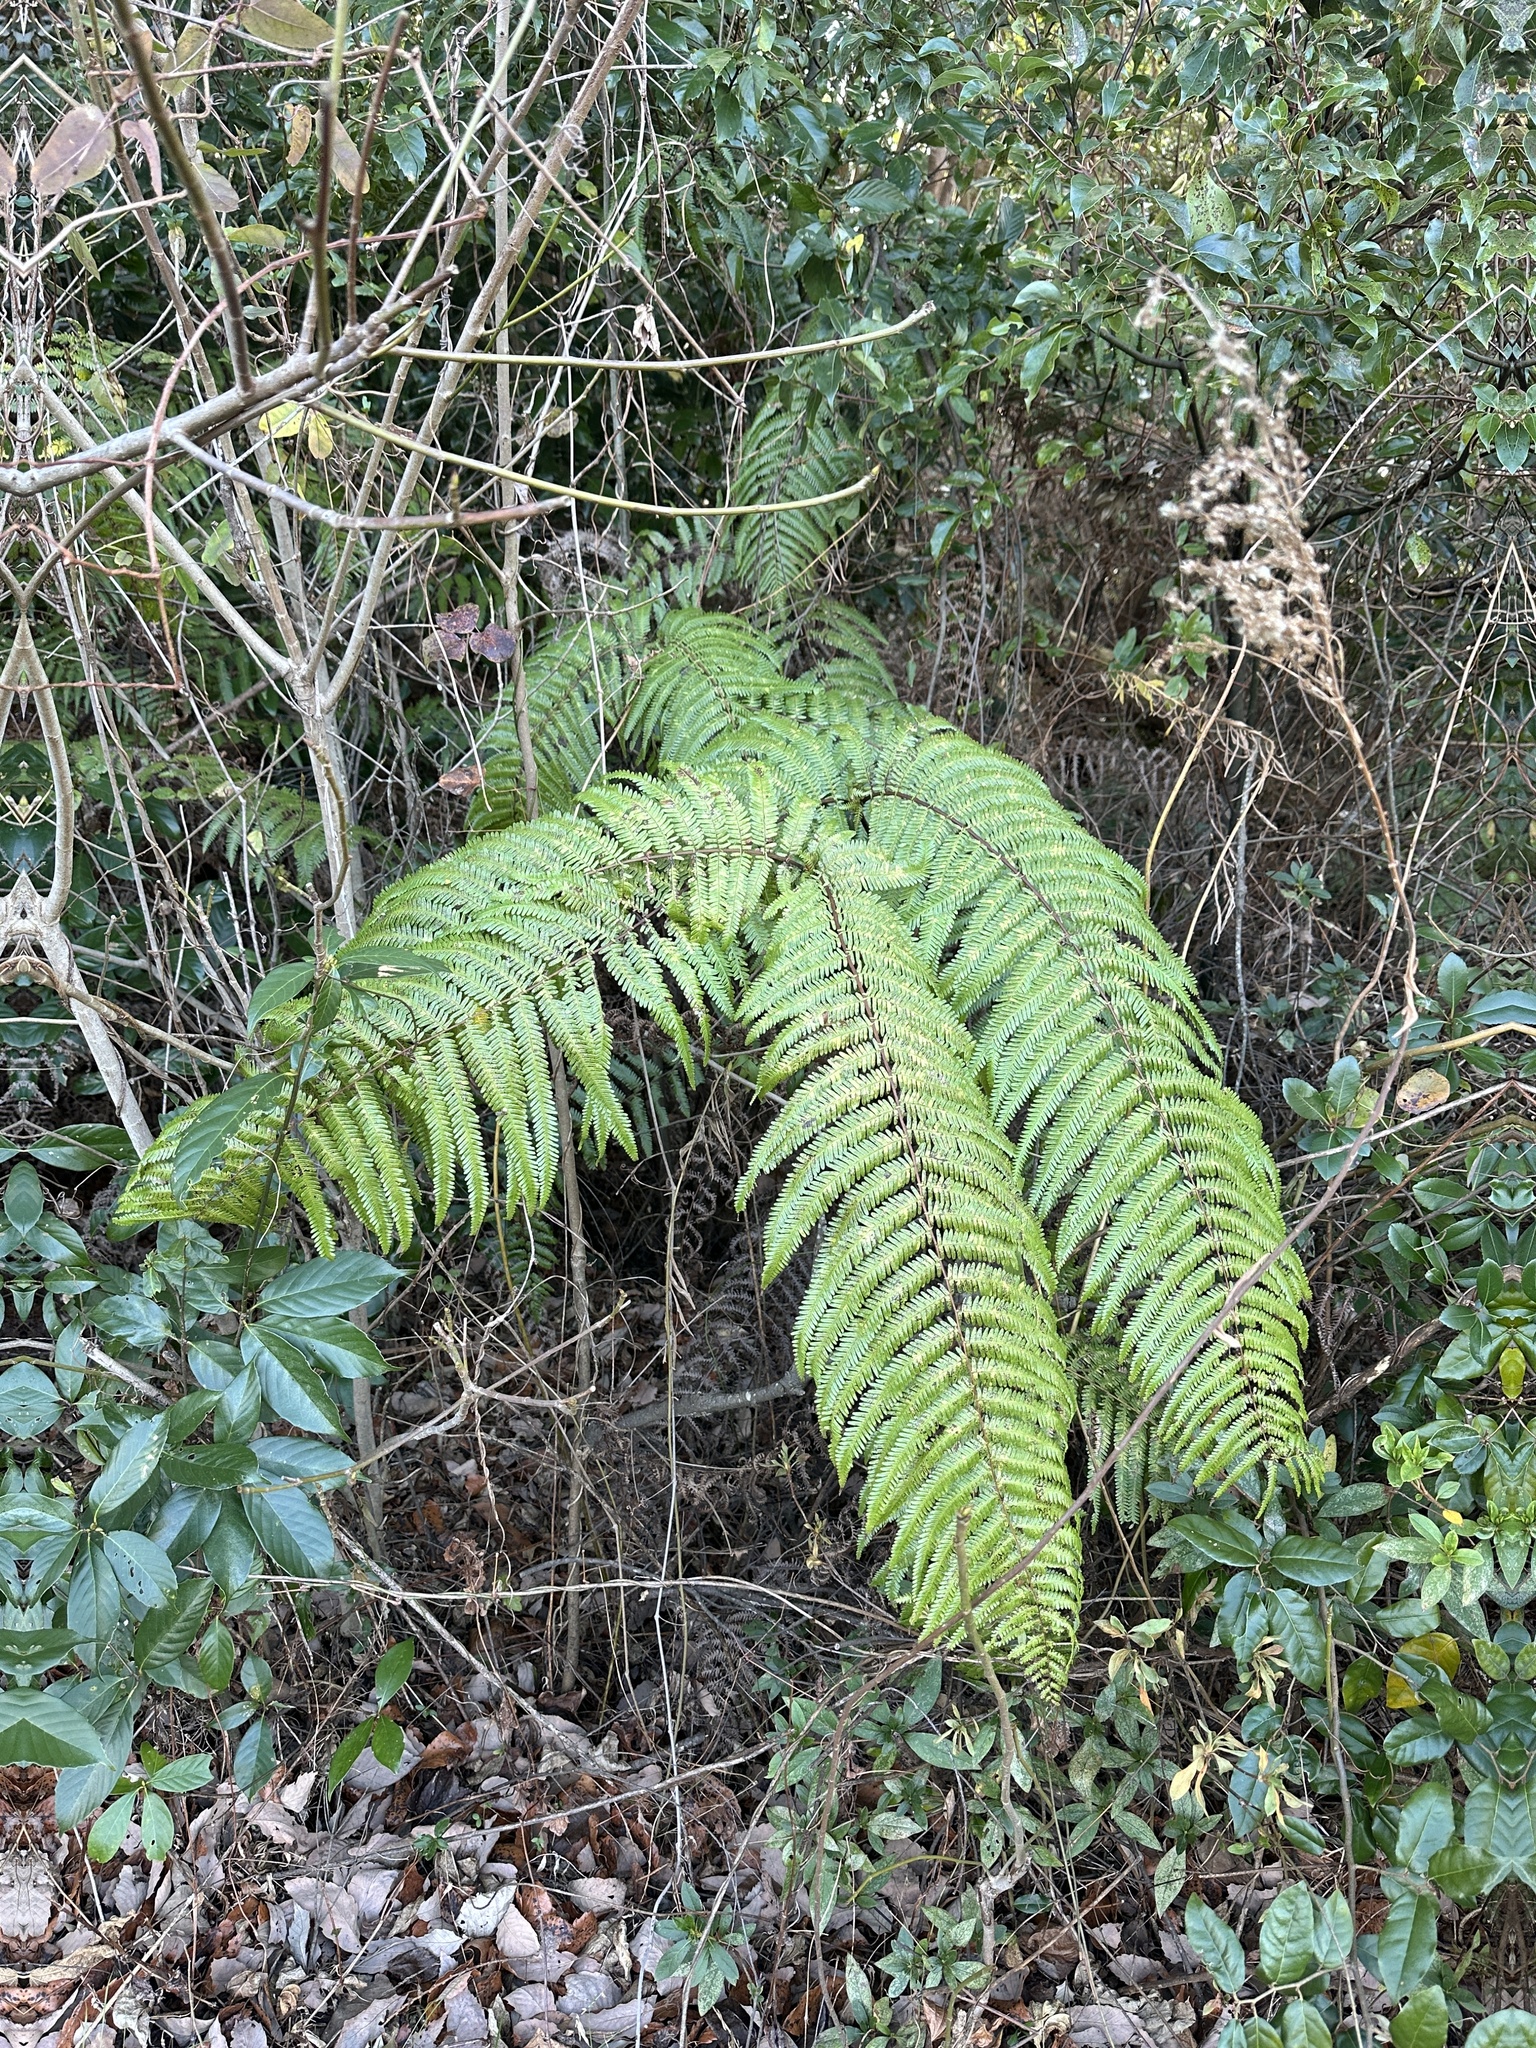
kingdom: Plantae
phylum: Tracheophyta
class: Polypodiopsida
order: Gleicheniales
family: Gleicheniaceae
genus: Diplopterygium
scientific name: Diplopterygium glaucum
